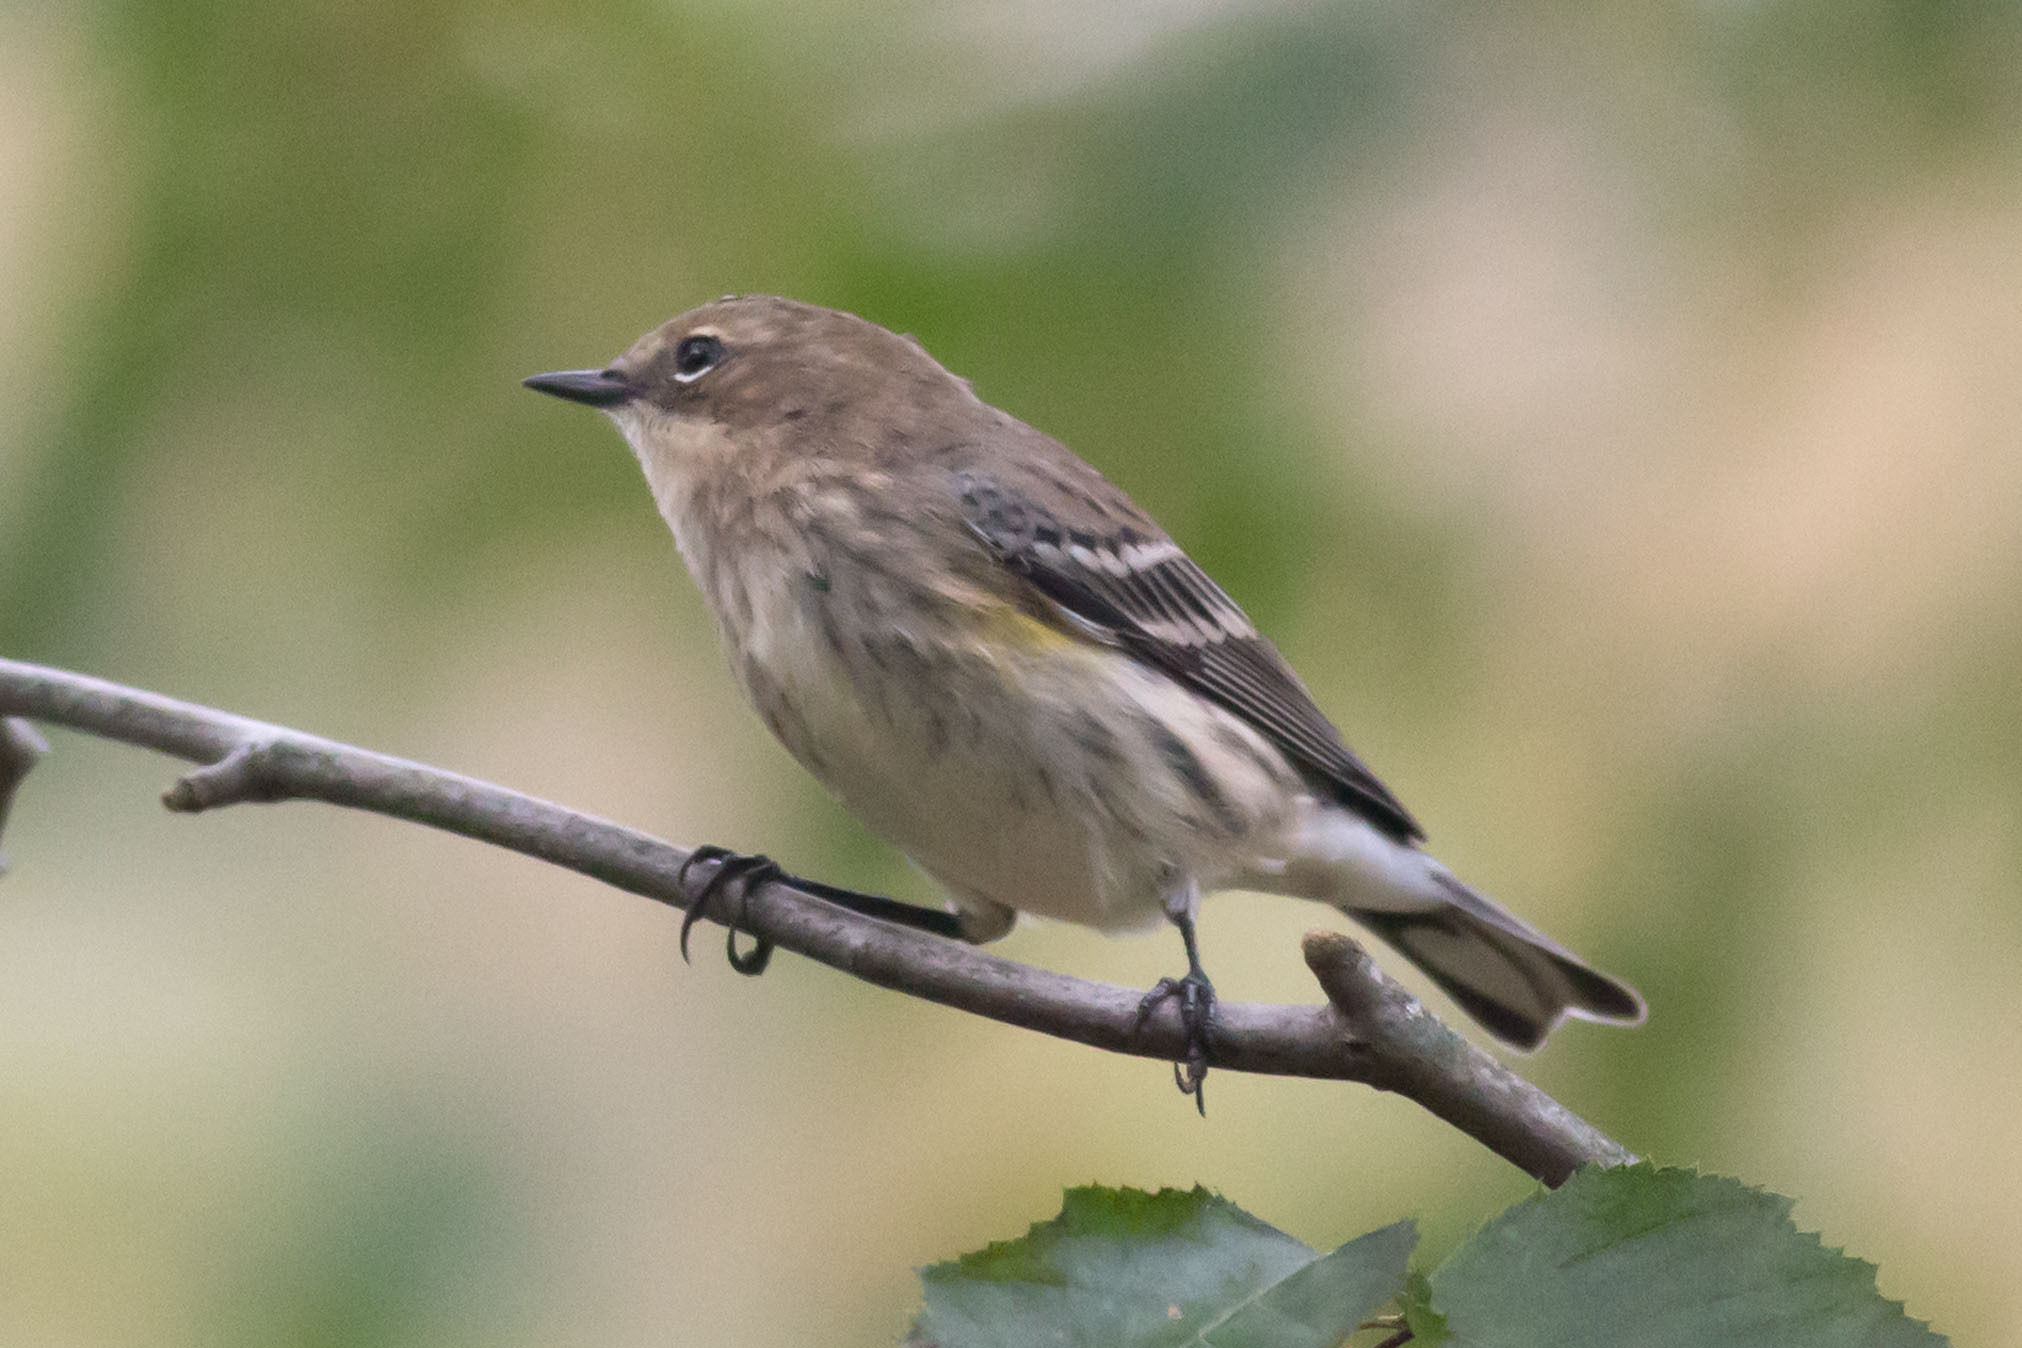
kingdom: Animalia
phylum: Chordata
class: Aves
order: Passeriformes
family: Parulidae
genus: Setophaga
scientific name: Setophaga coronata
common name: Myrtle warbler
